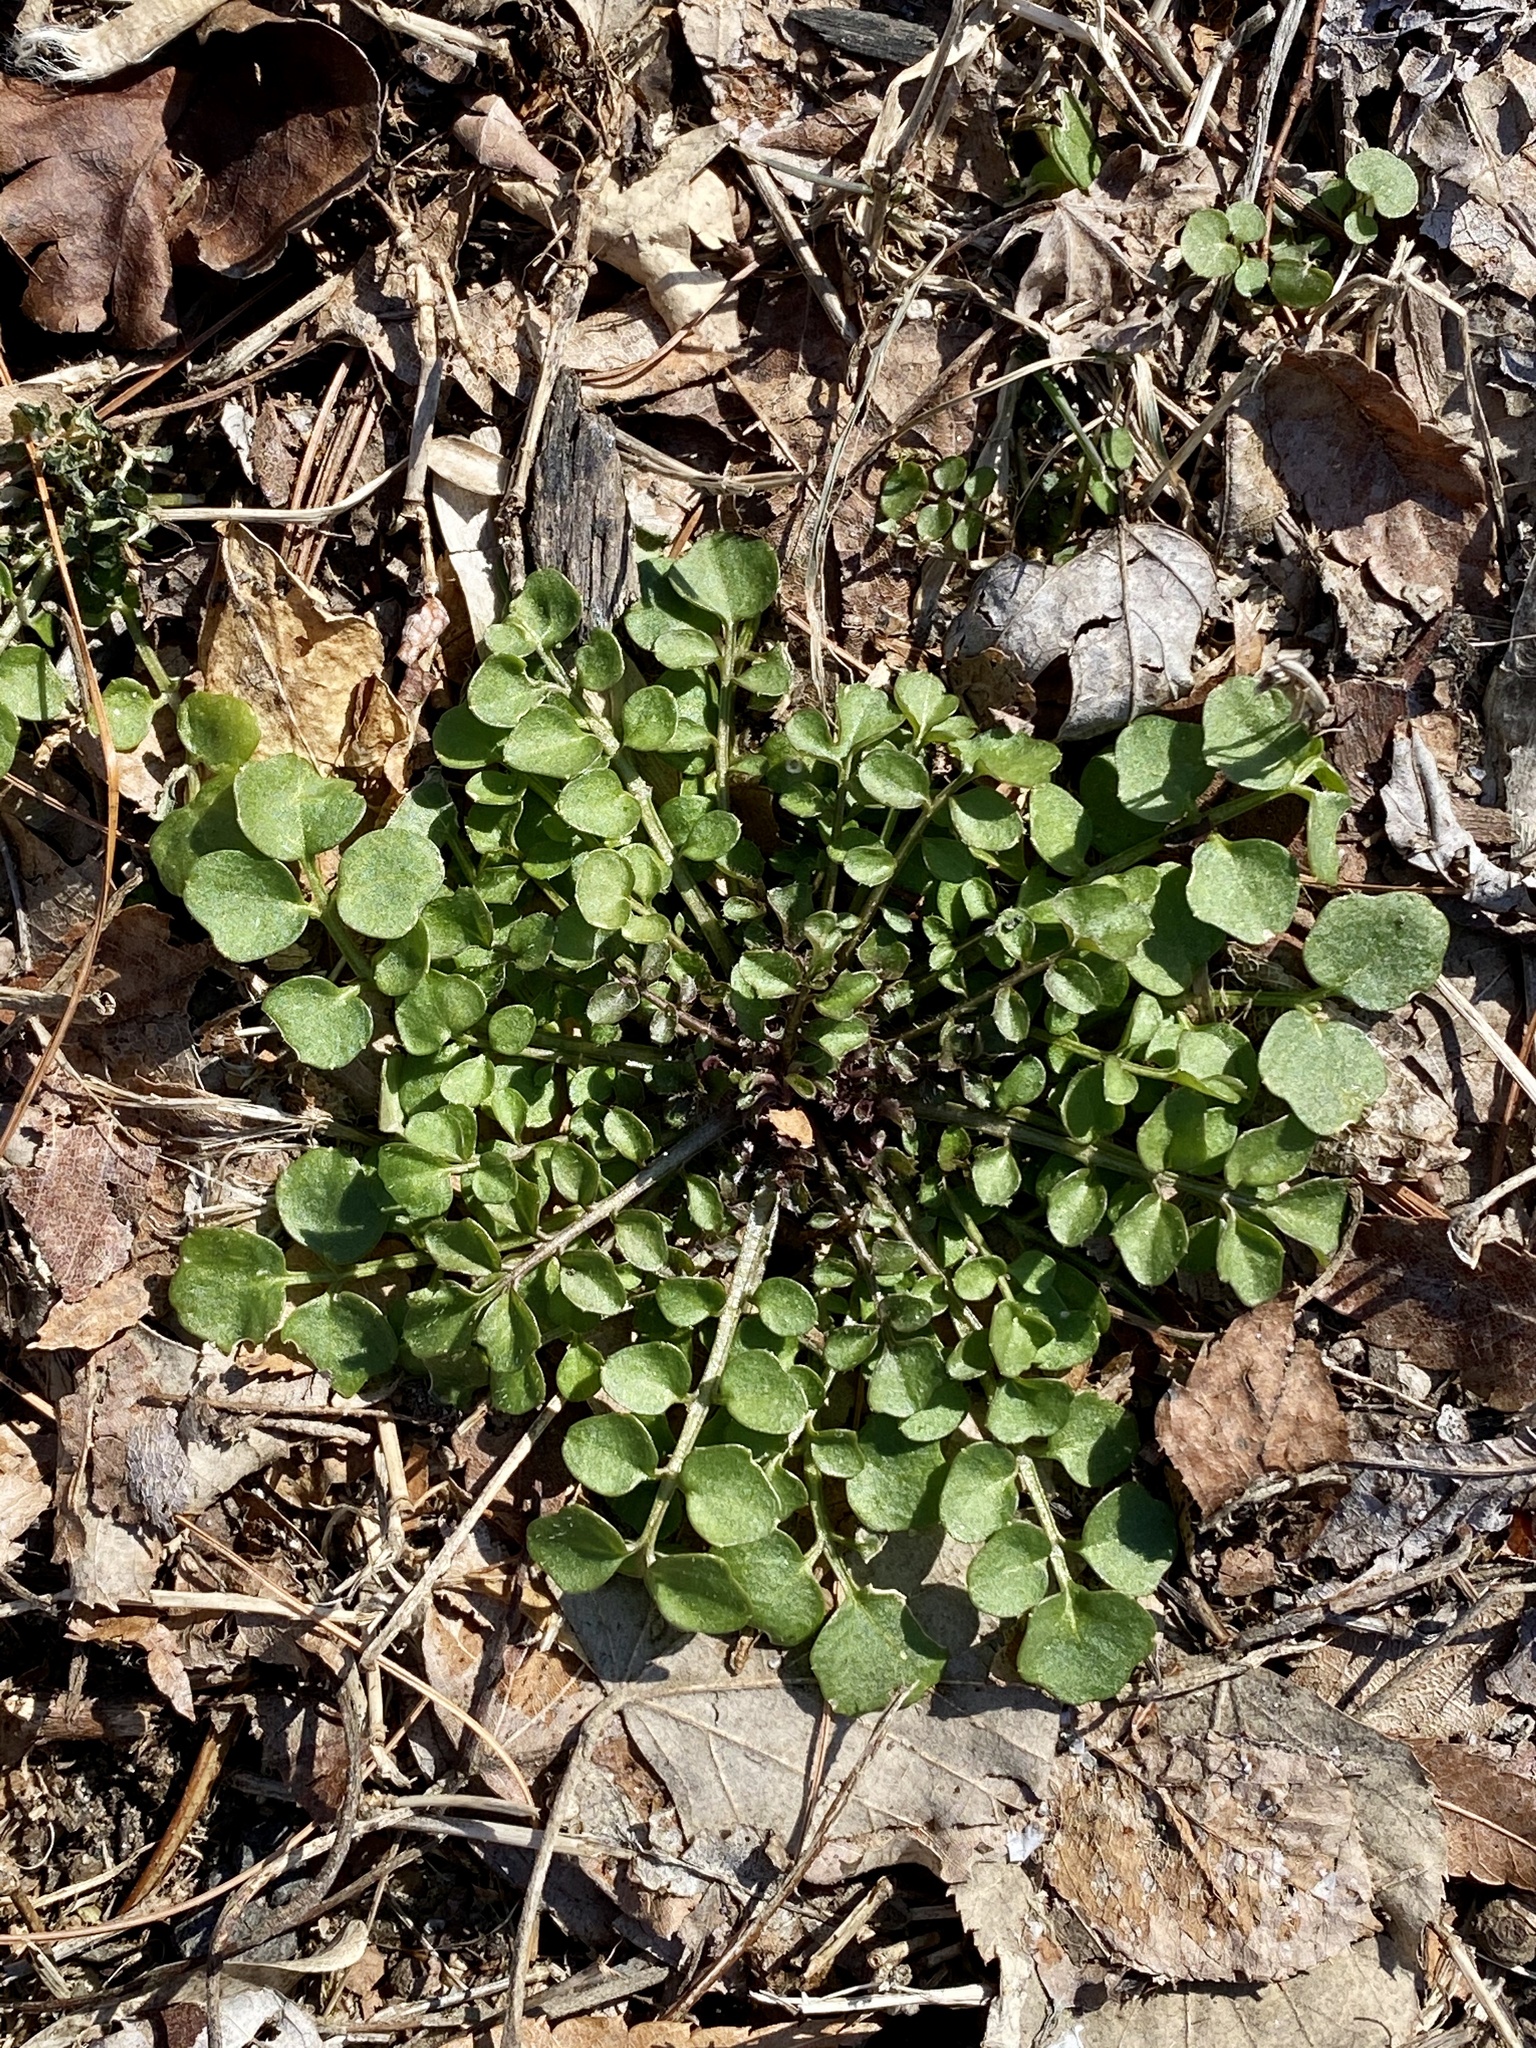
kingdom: Plantae
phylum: Tracheophyta
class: Magnoliopsida
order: Brassicales
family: Brassicaceae
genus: Cardamine
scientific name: Cardamine hirsuta
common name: Hairy bittercress
